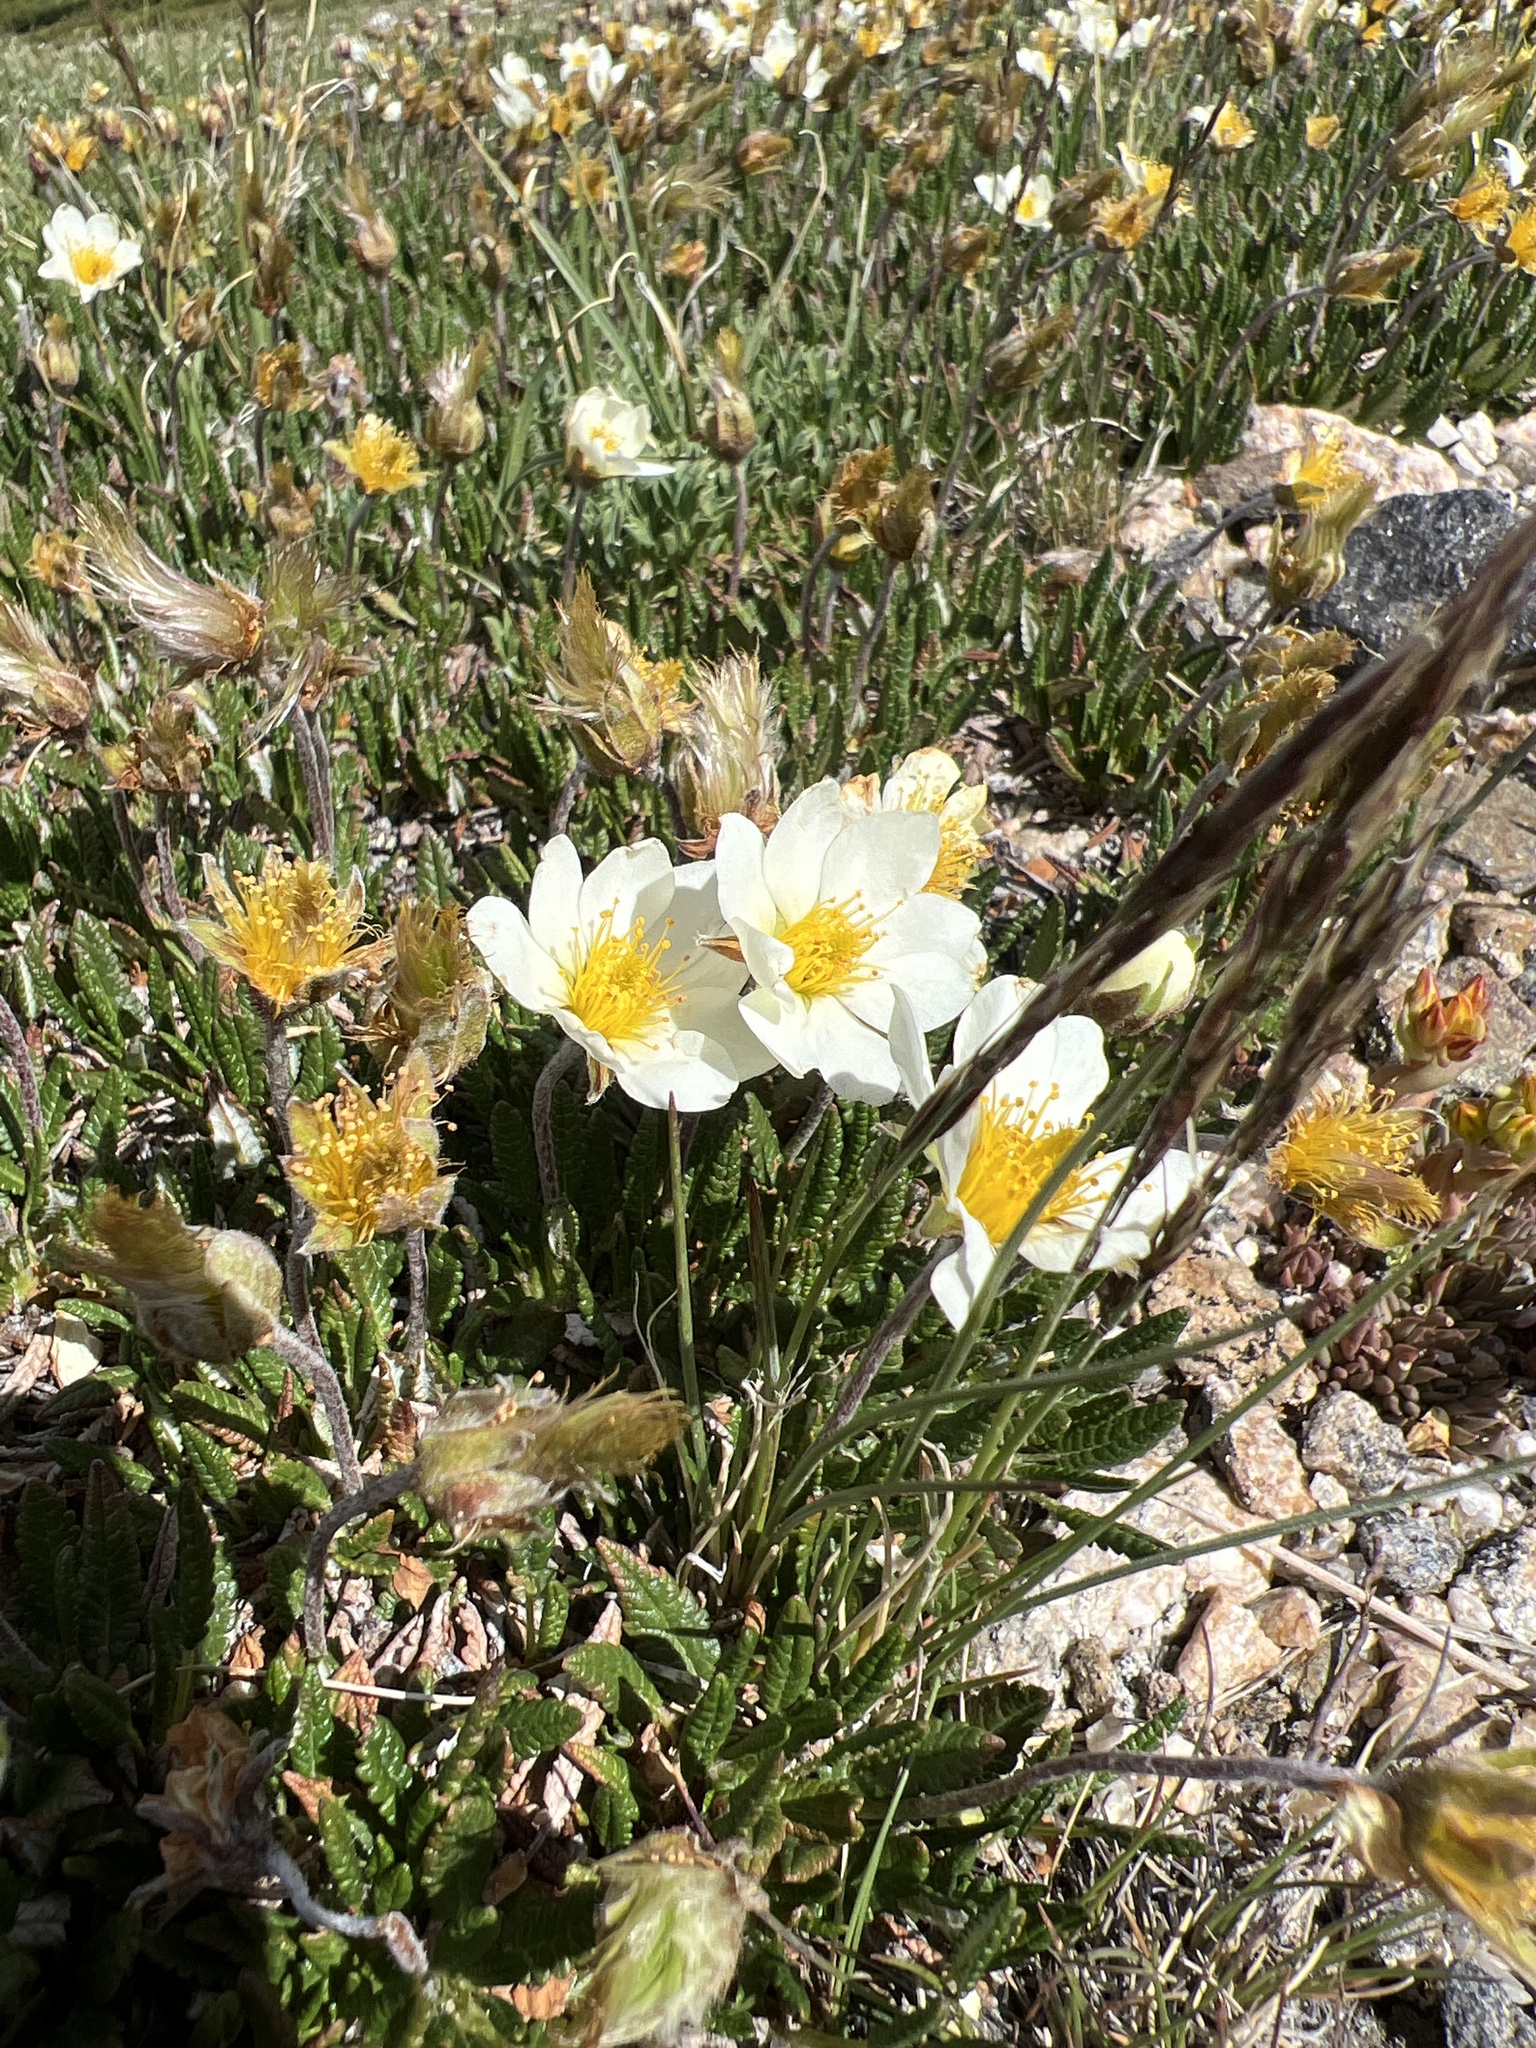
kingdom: Plantae
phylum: Tracheophyta
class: Magnoliopsida
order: Rosales
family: Rosaceae
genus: Dryas
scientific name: Dryas octopetala
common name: Eight-petal mountain-avens
